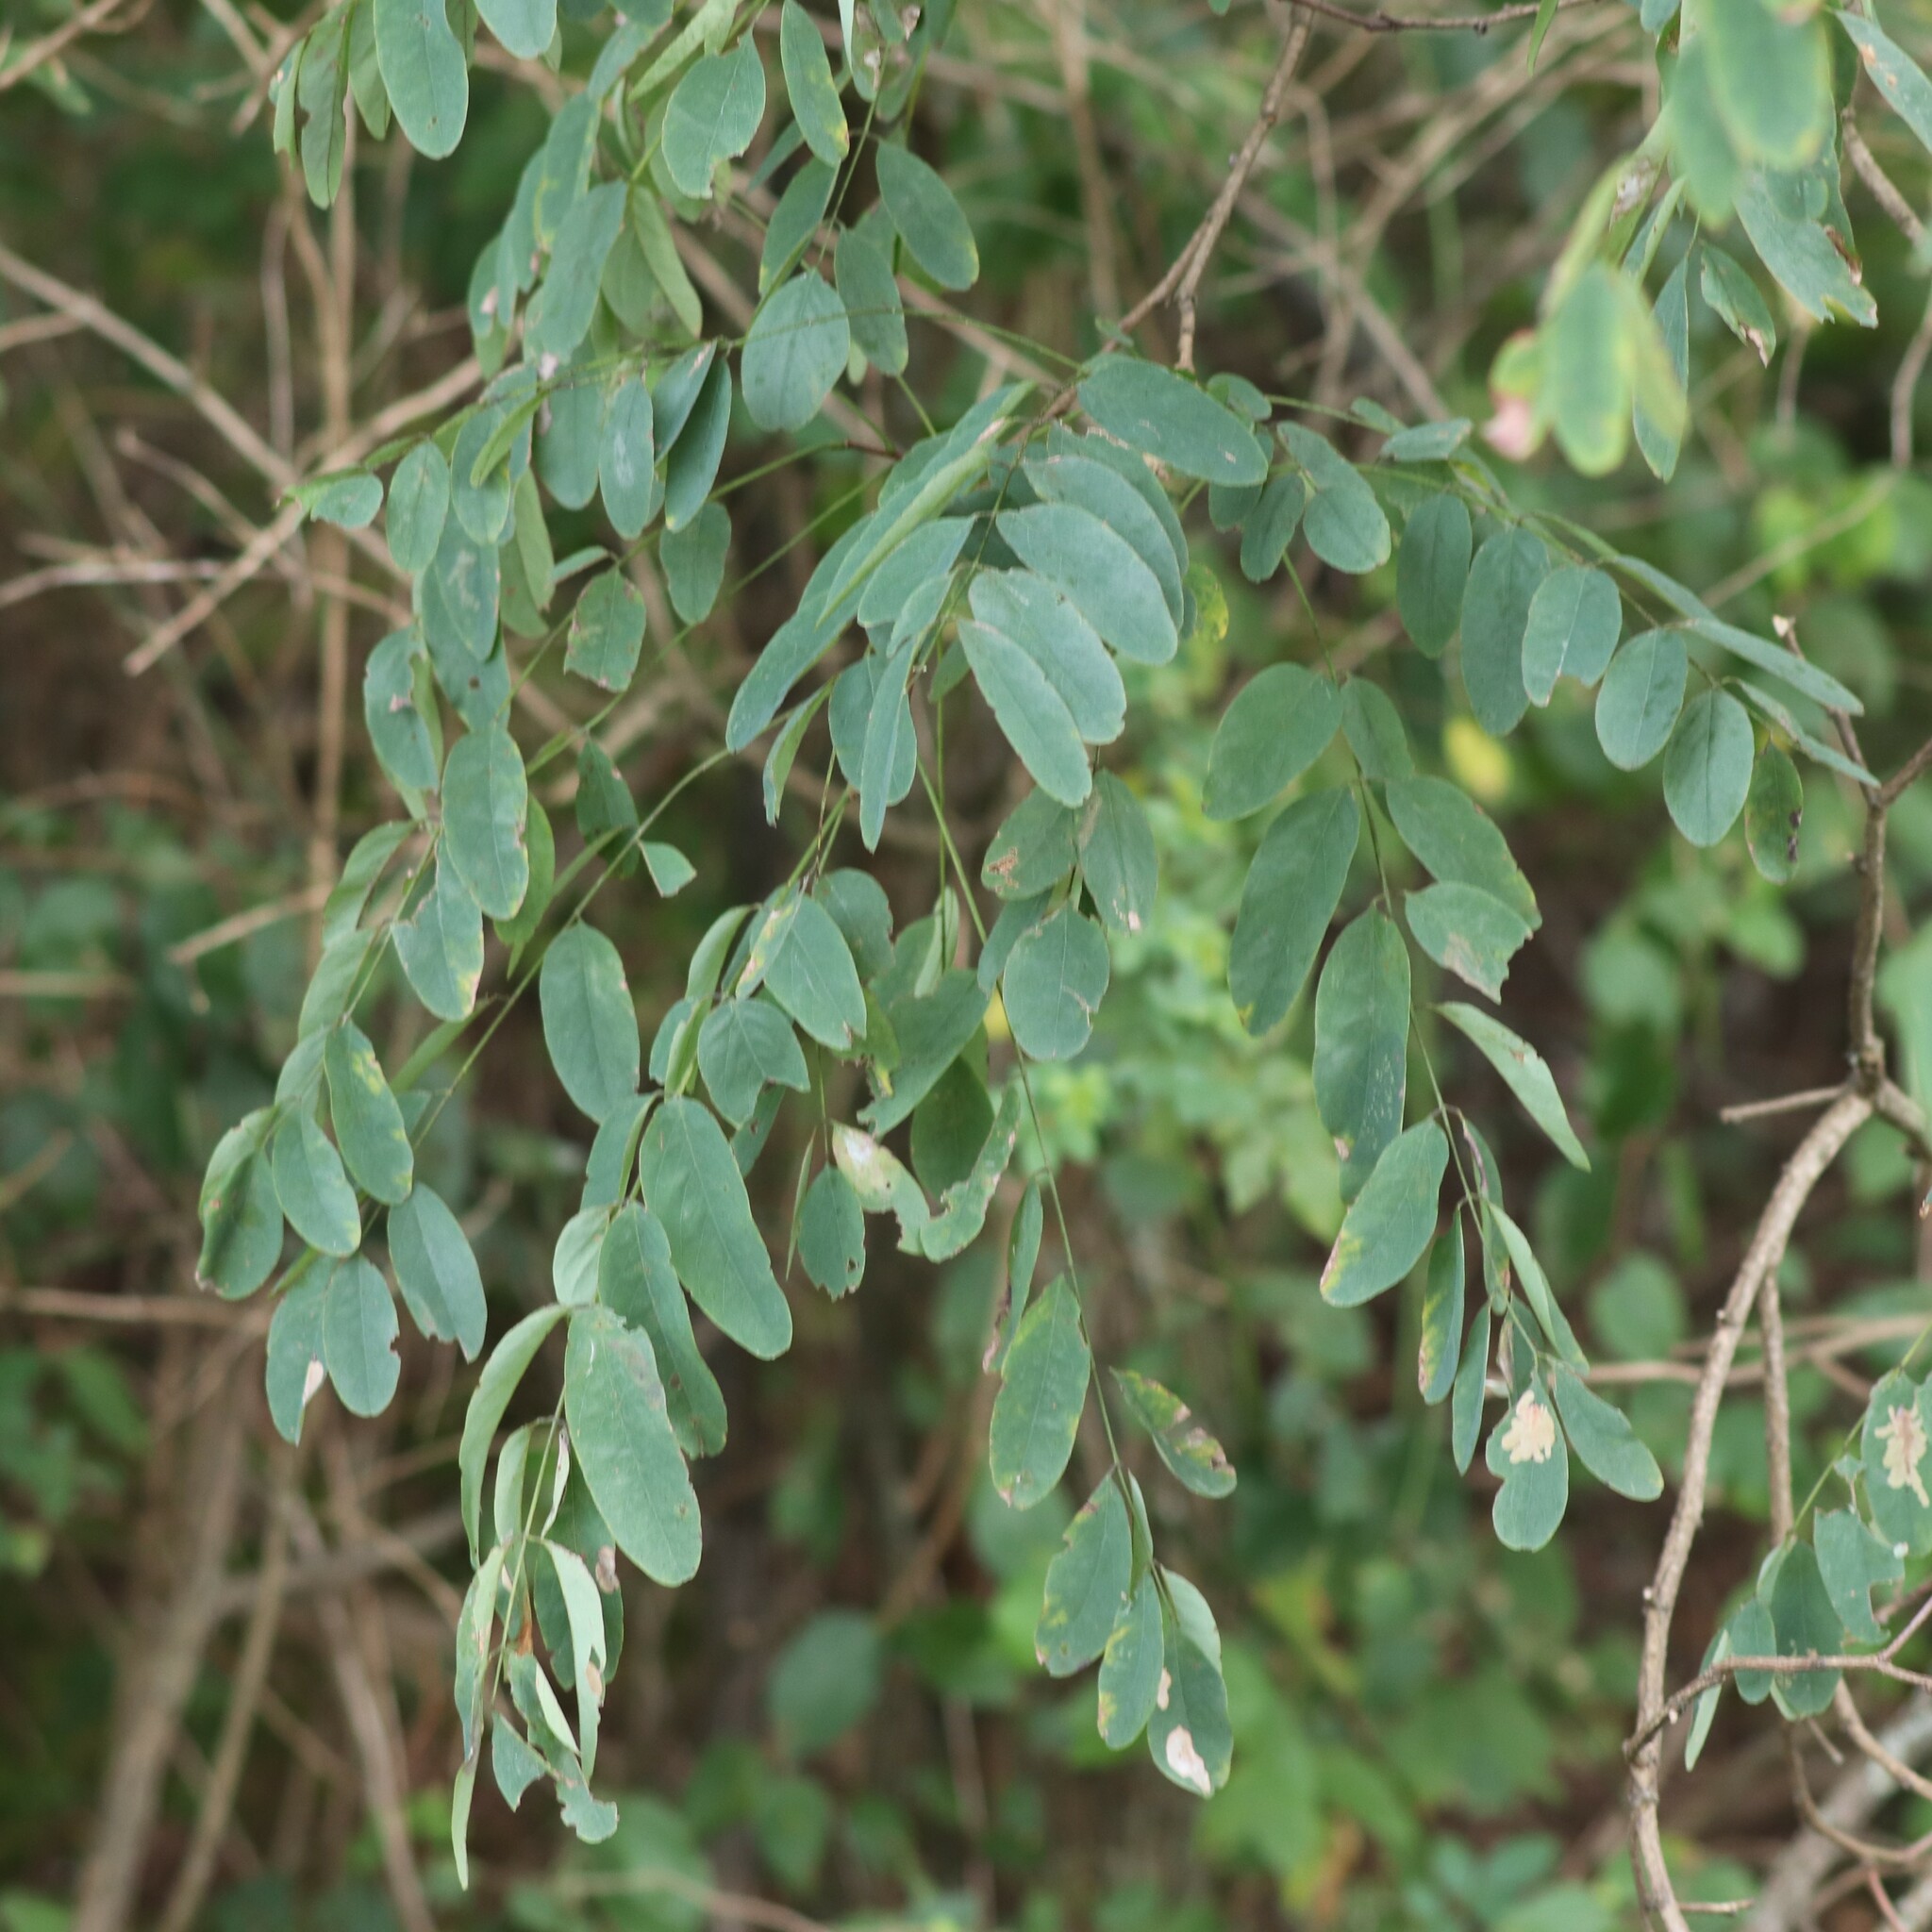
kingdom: Plantae
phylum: Tracheophyta
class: Magnoliopsida
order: Fabales
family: Fabaceae
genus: Robinia
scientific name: Robinia pseudoacacia
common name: Black locust
